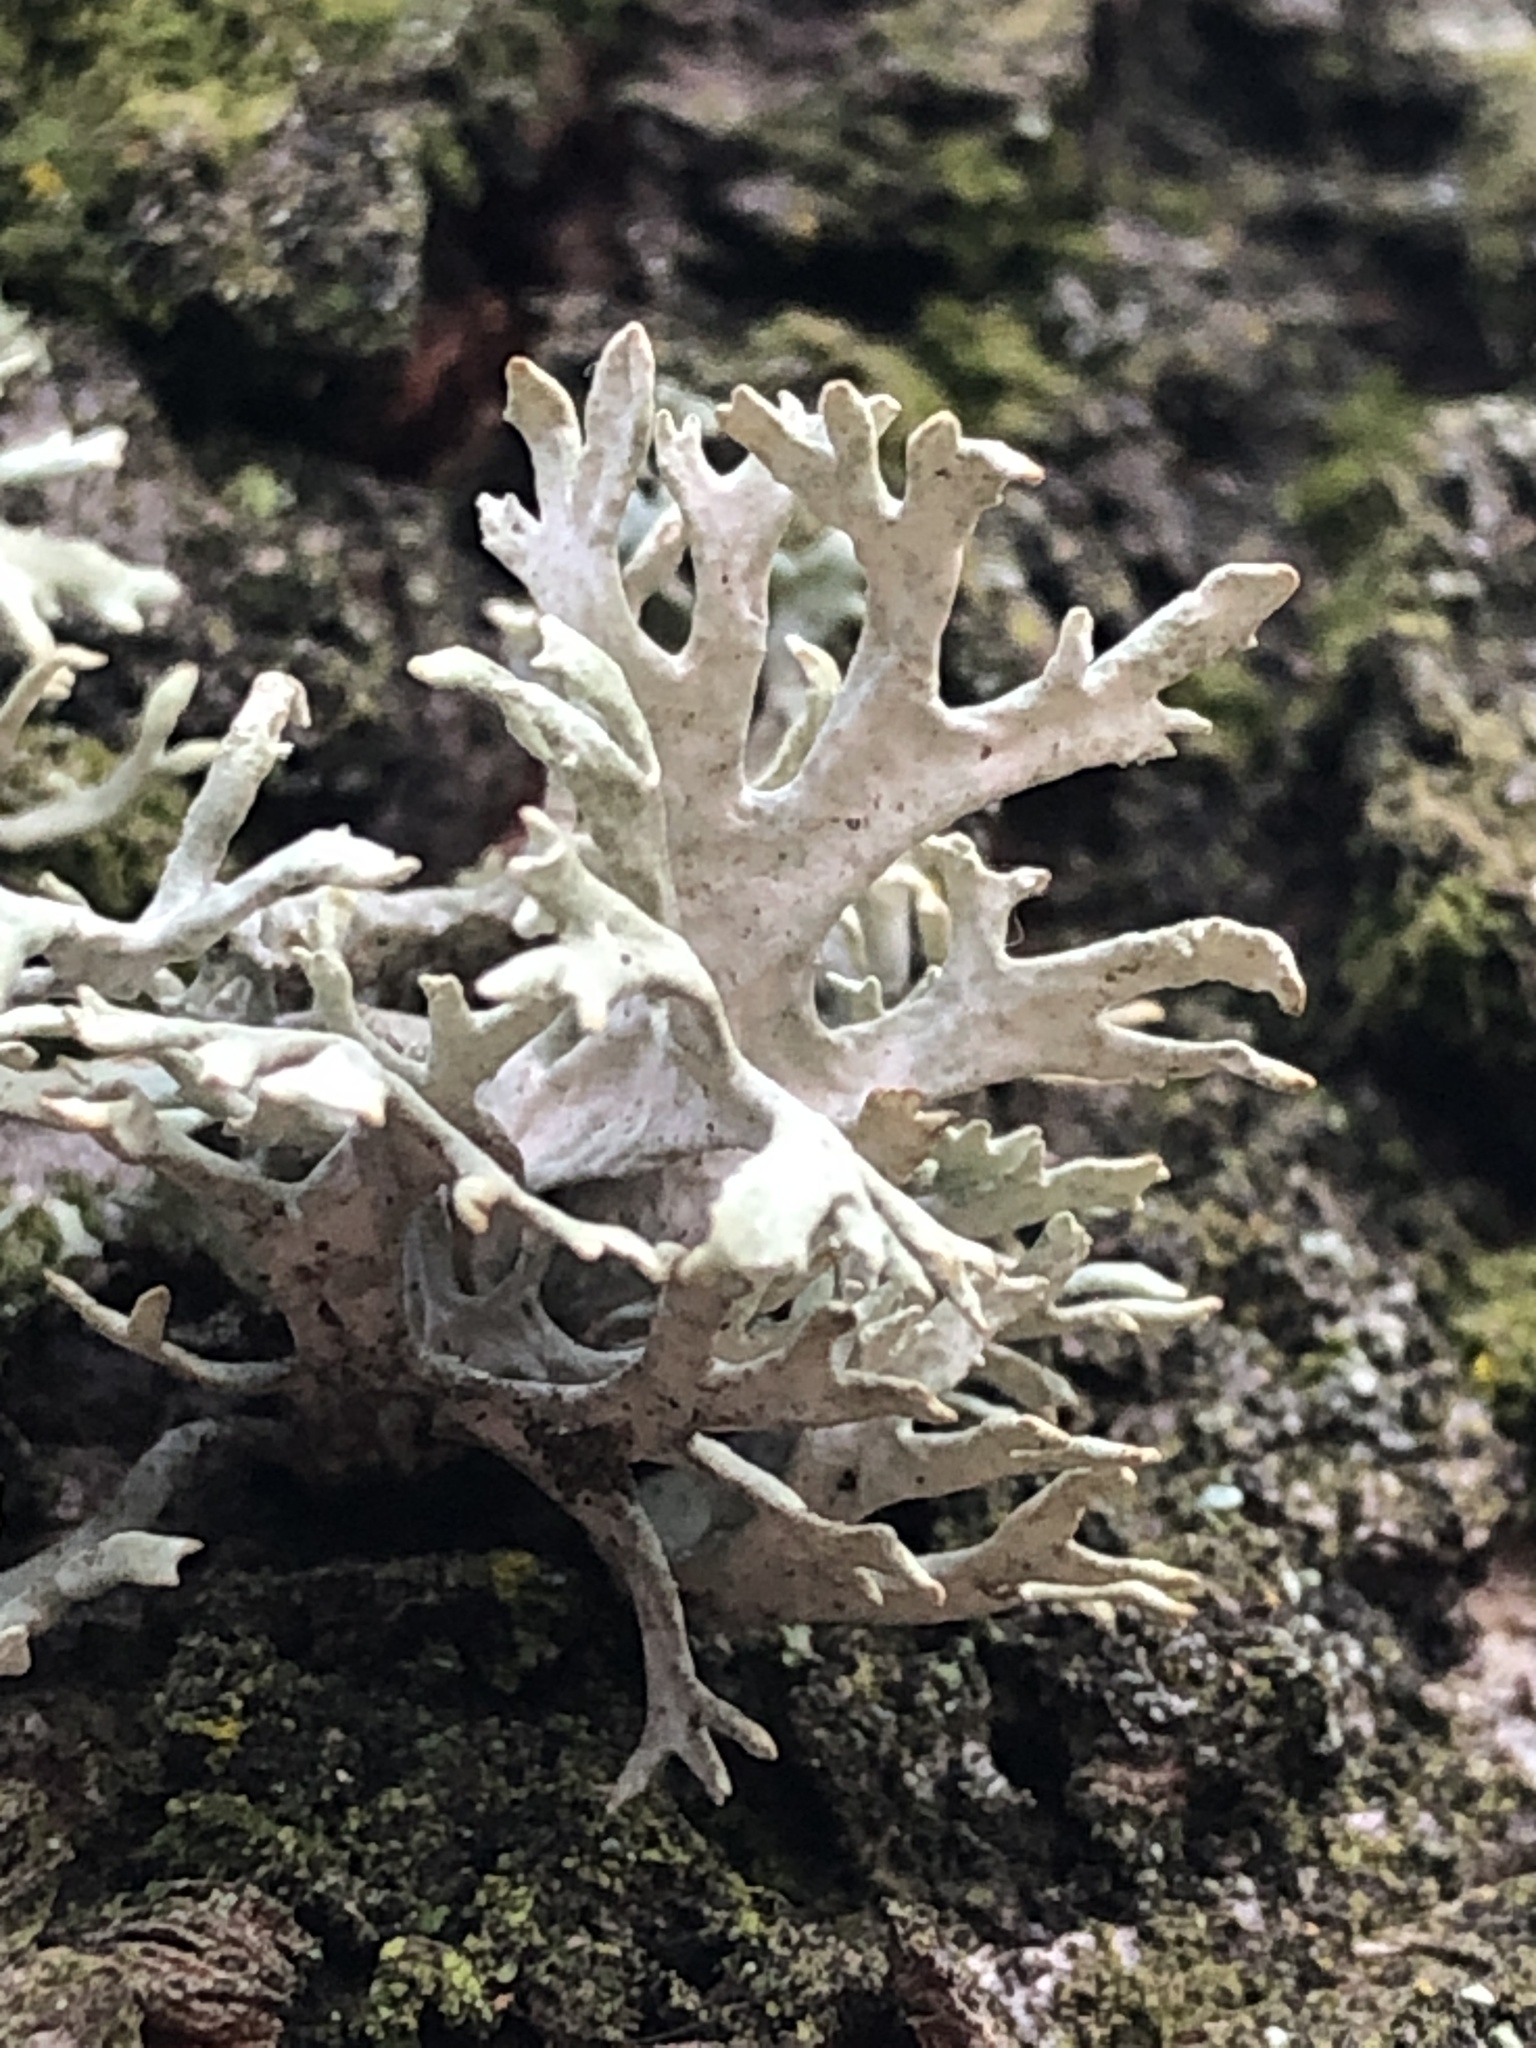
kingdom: Fungi
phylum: Ascomycota
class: Lecanoromycetes
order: Lecanorales
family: Parmeliaceae
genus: Evernia
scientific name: Evernia prunastri
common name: Oak moss
